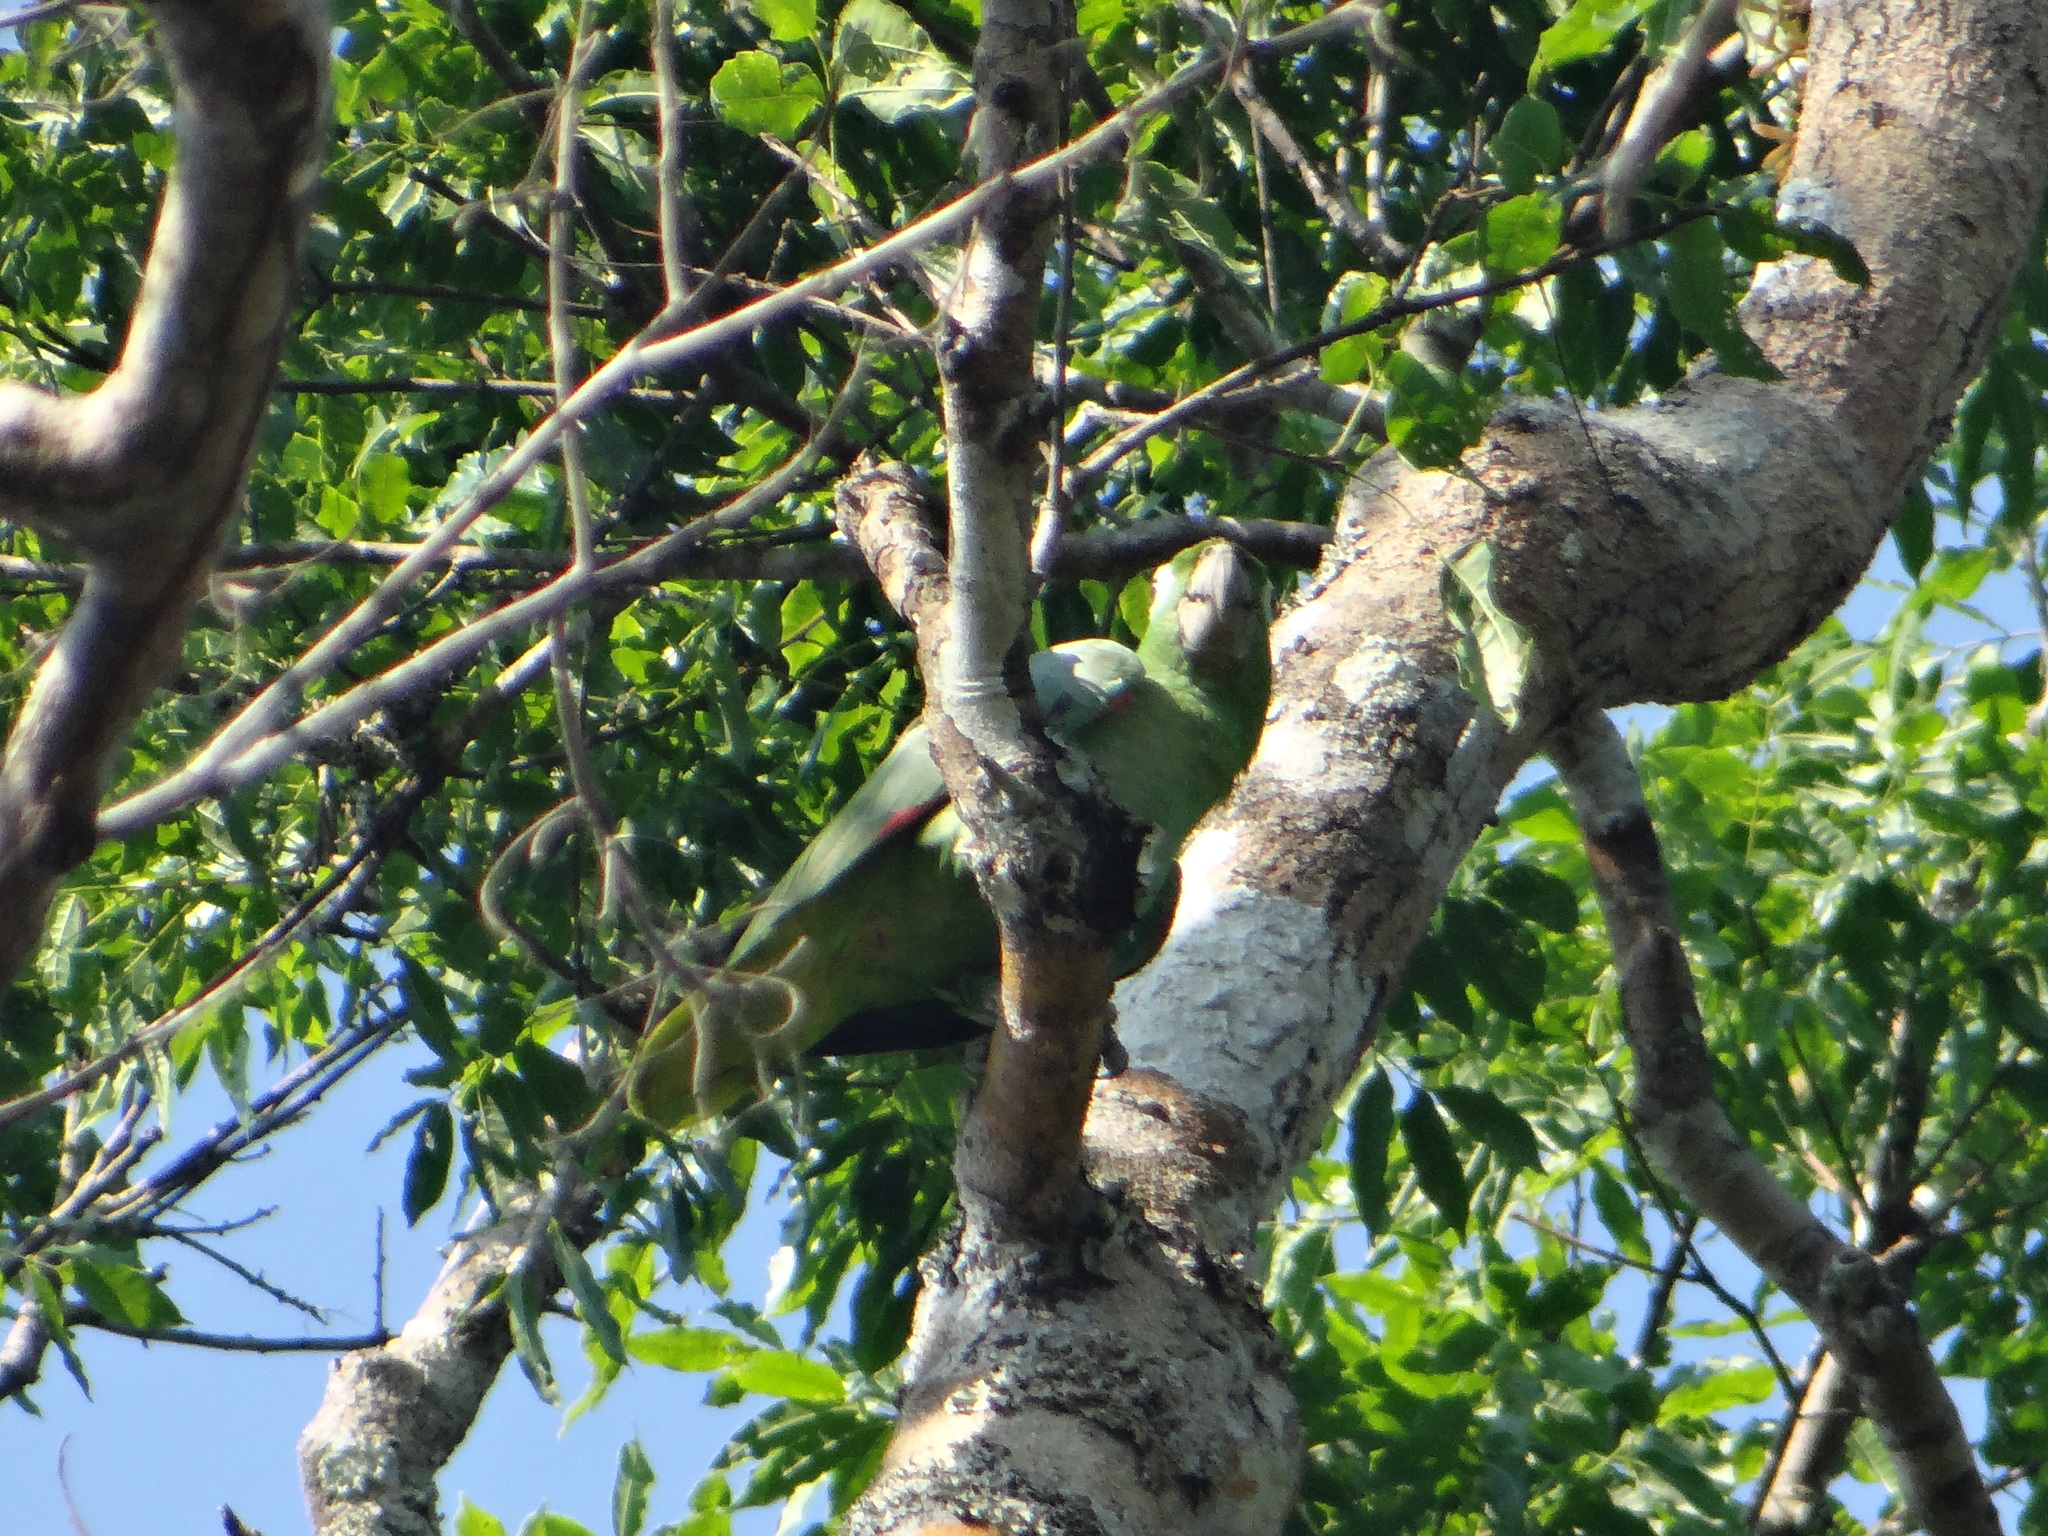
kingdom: Animalia
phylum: Chordata
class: Aves
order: Psittaciformes
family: Psittacidae
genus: Amazona
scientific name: Amazona farinosa
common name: Mealy parrot
